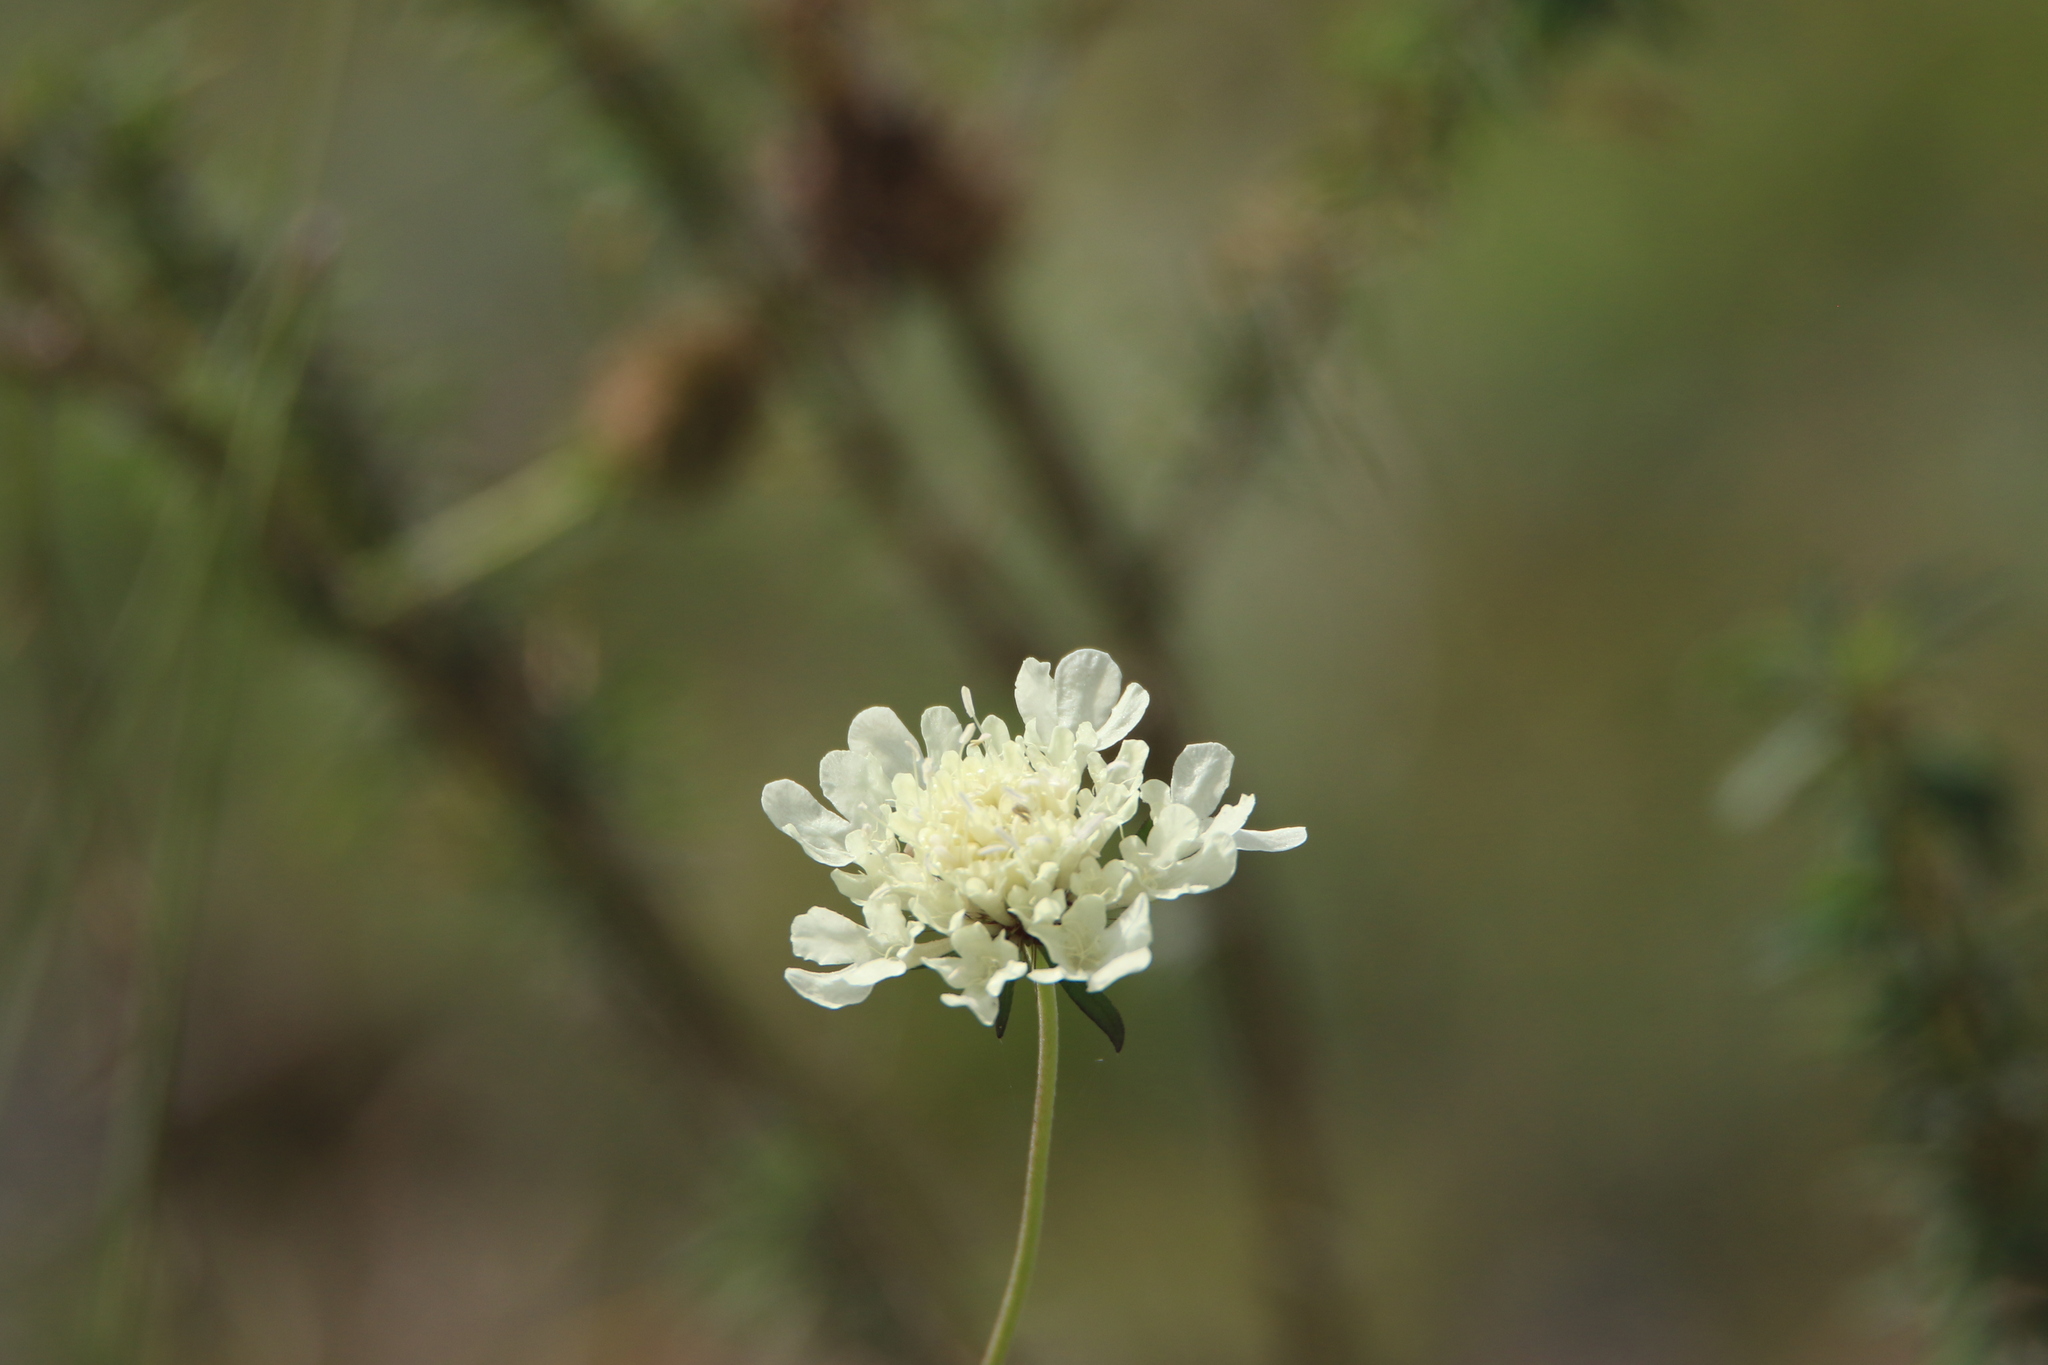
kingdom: Plantae
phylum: Tracheophyta
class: Magnoliopsida
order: Dipsacales
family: Caprifoliaceae
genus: Scabiosa
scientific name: Scabiosa ochroleuca
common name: Cream pincushions
